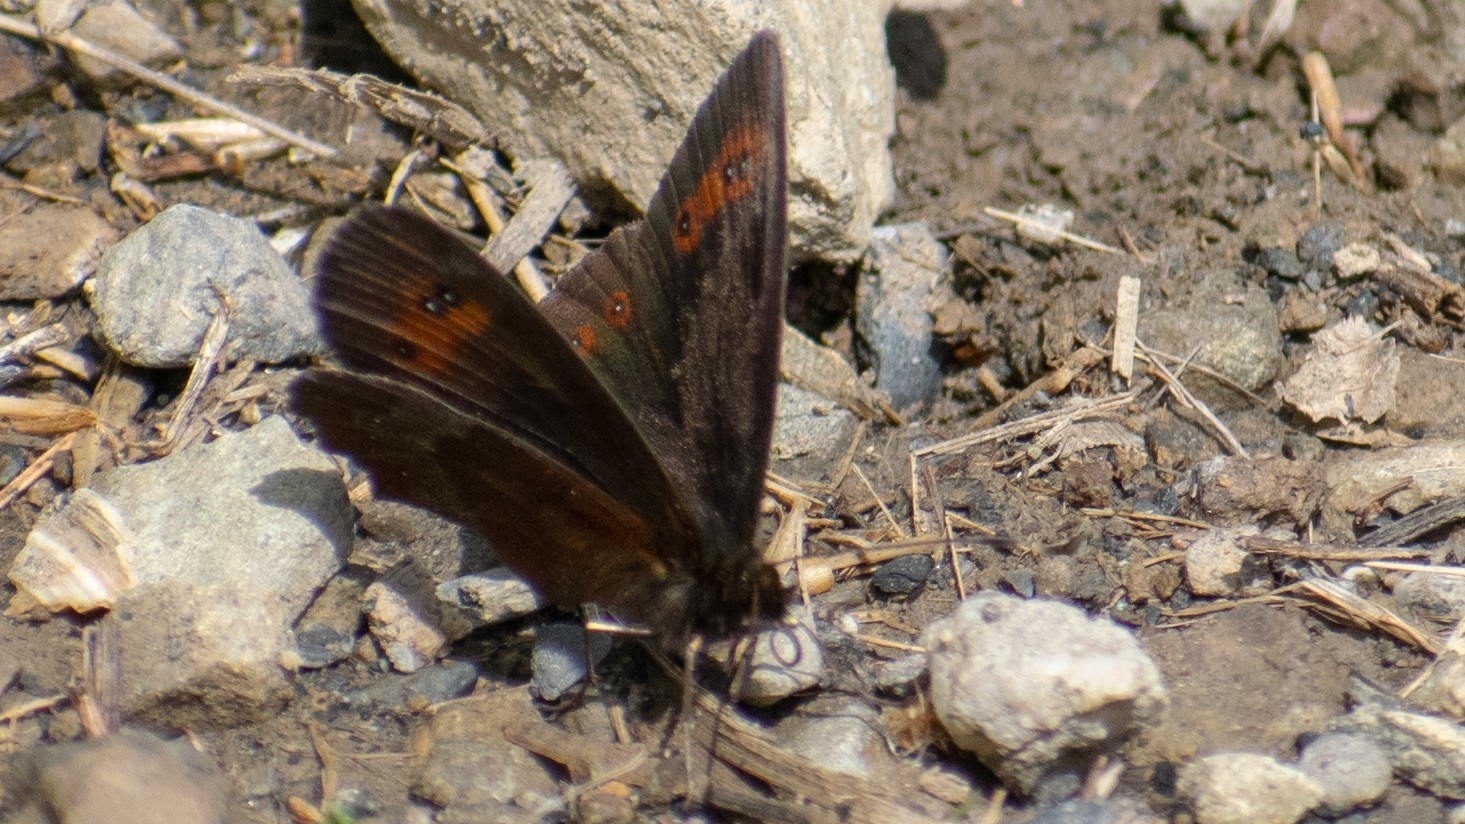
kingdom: Animalia
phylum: Arthropoda
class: Insecta
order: Lepidoptera
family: Nymphalidae
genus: Erebia
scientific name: Erebia aethiops
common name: Scotch argus
